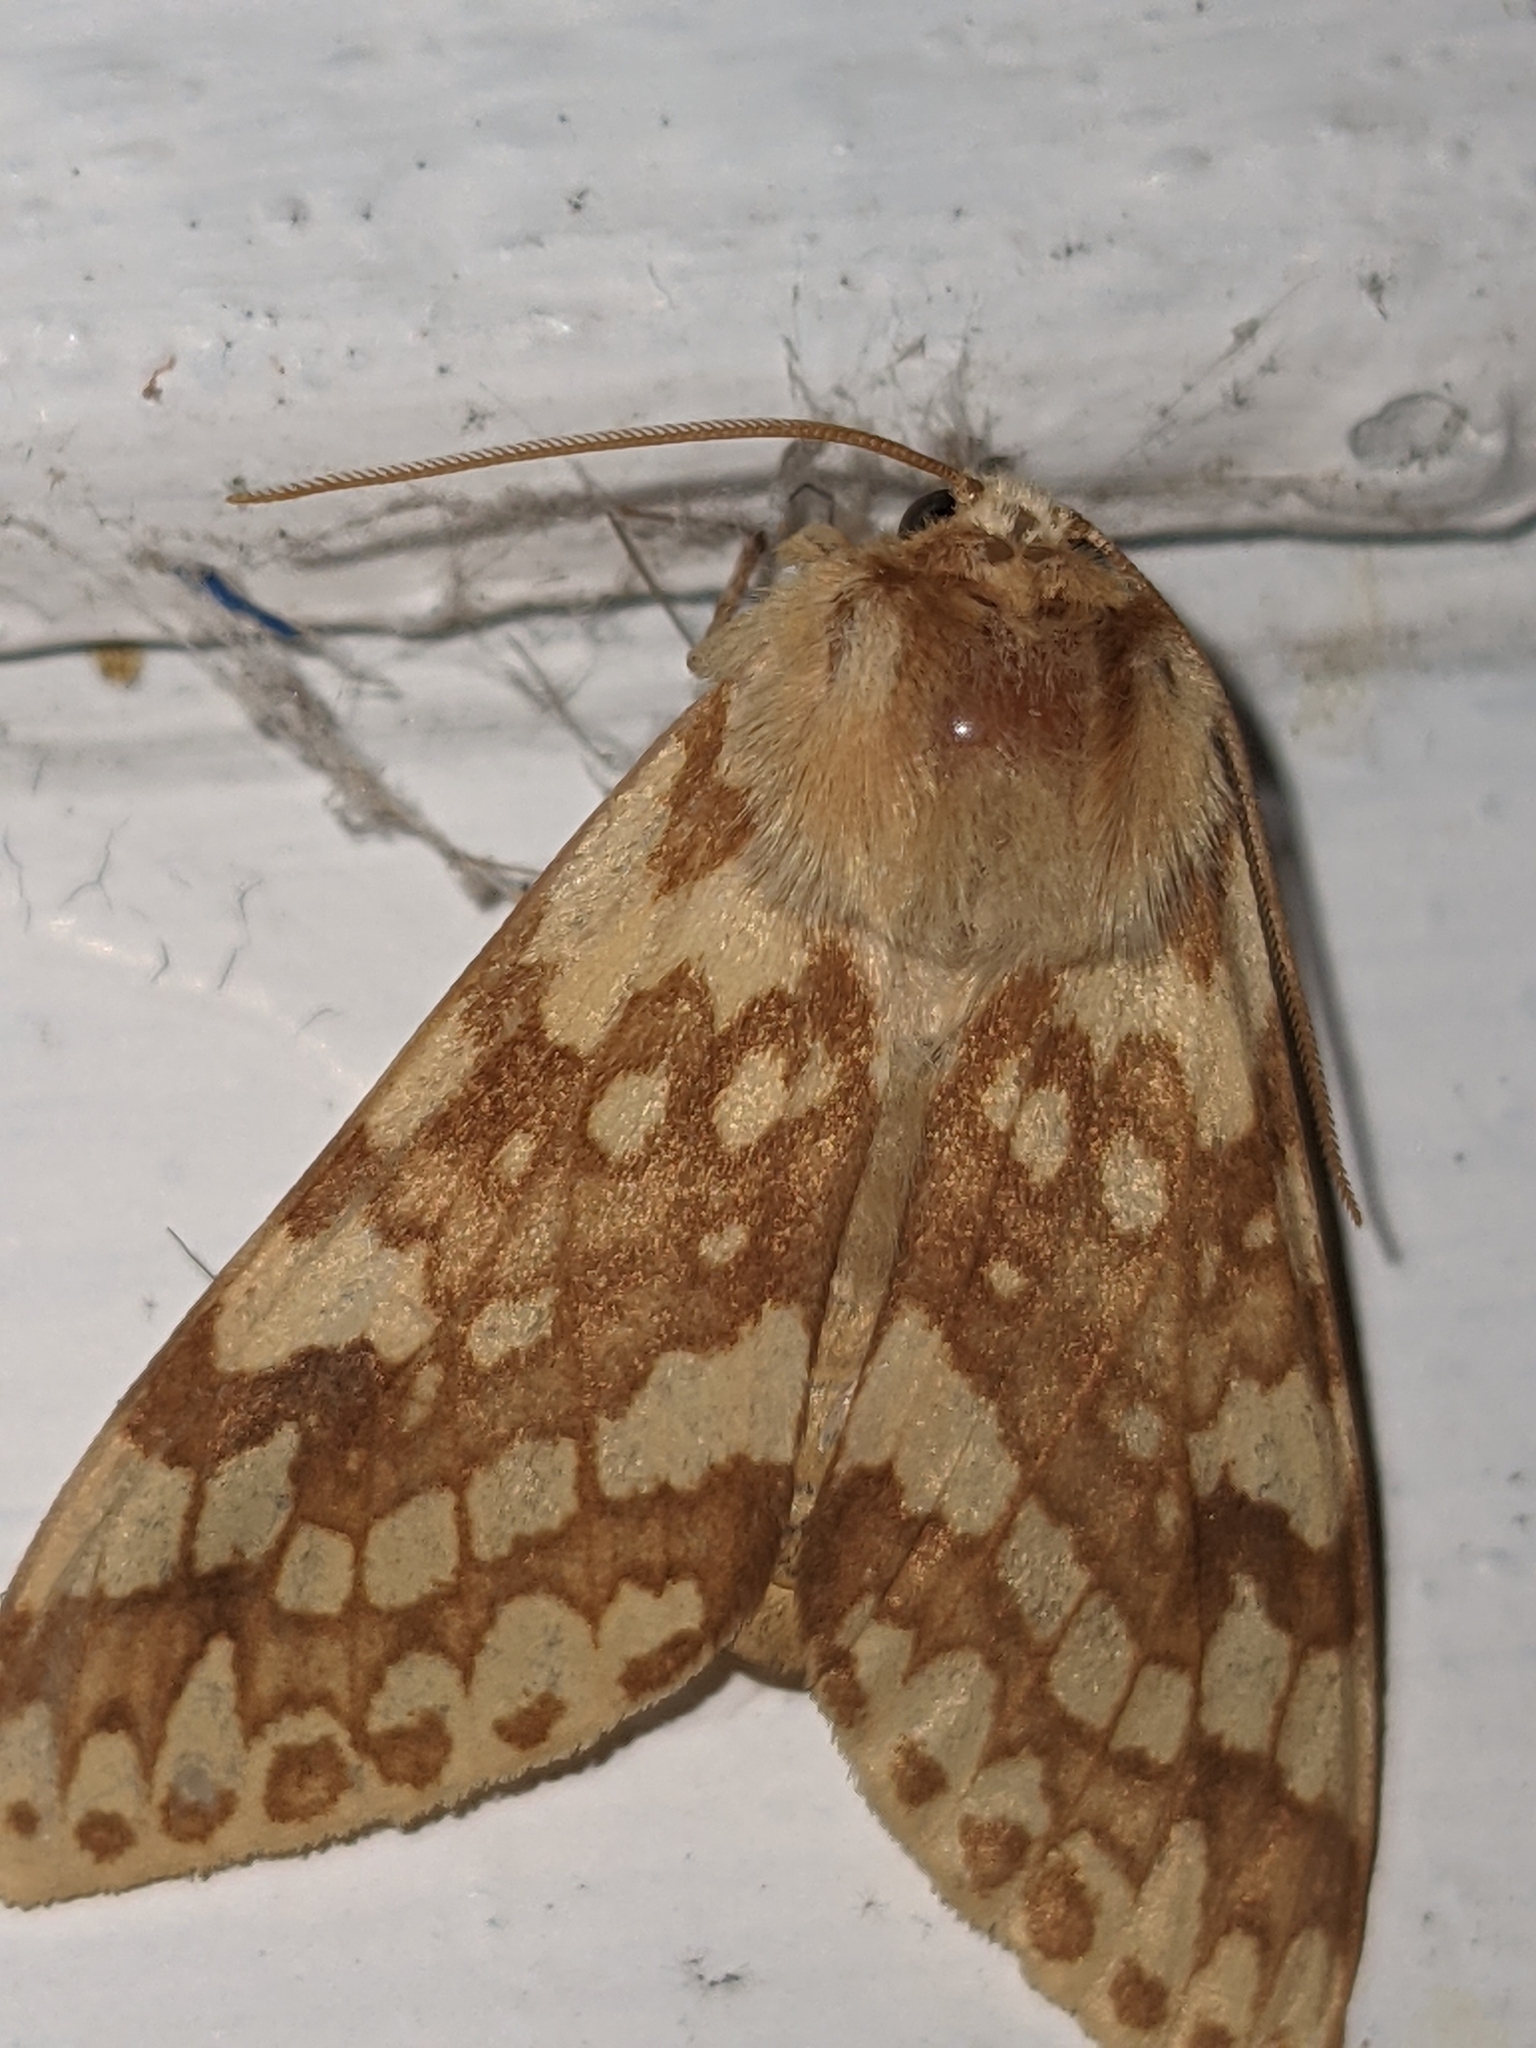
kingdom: Animalia
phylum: Arthropoda
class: Insecta
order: Lepidoptera
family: Erebidae
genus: Lophocampa
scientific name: Lophocampa maculata
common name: Spotted tussock moth
